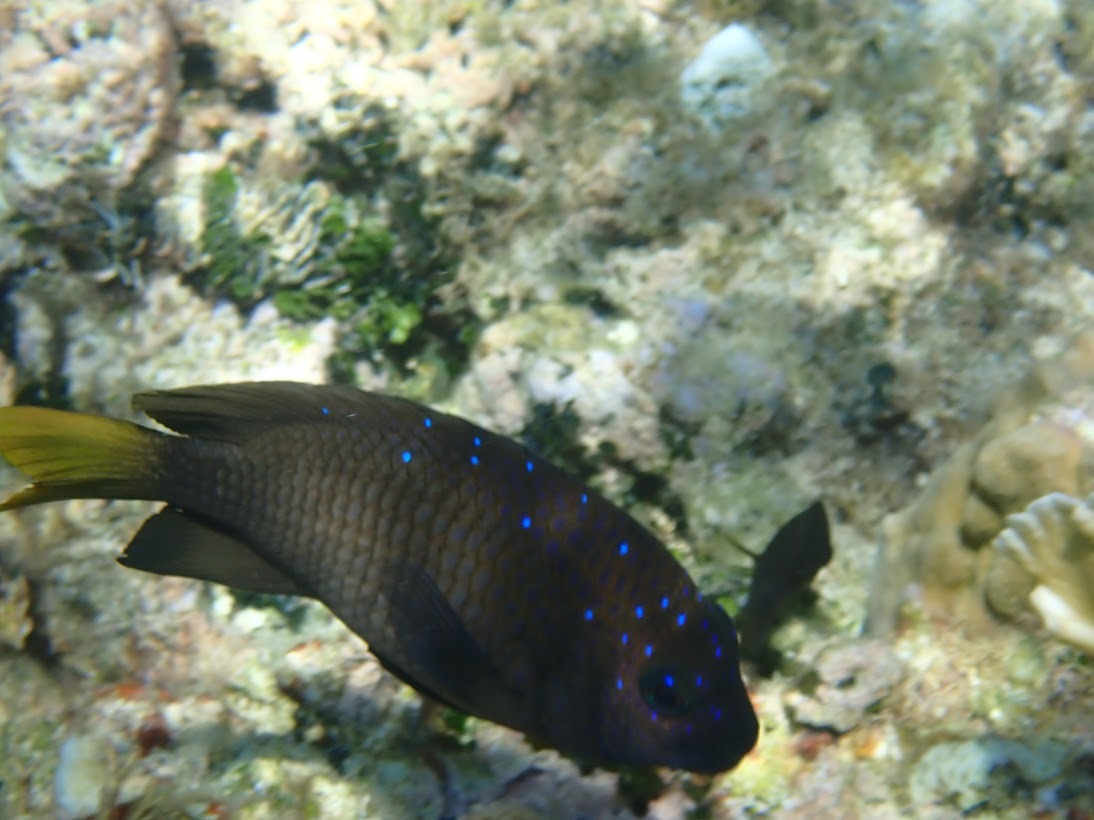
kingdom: Animalia
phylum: Chordata
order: Perciformes
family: Pomacentridae
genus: Microspathodon
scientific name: Microspathodon chrysurus
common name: Yellowtail damselfish
